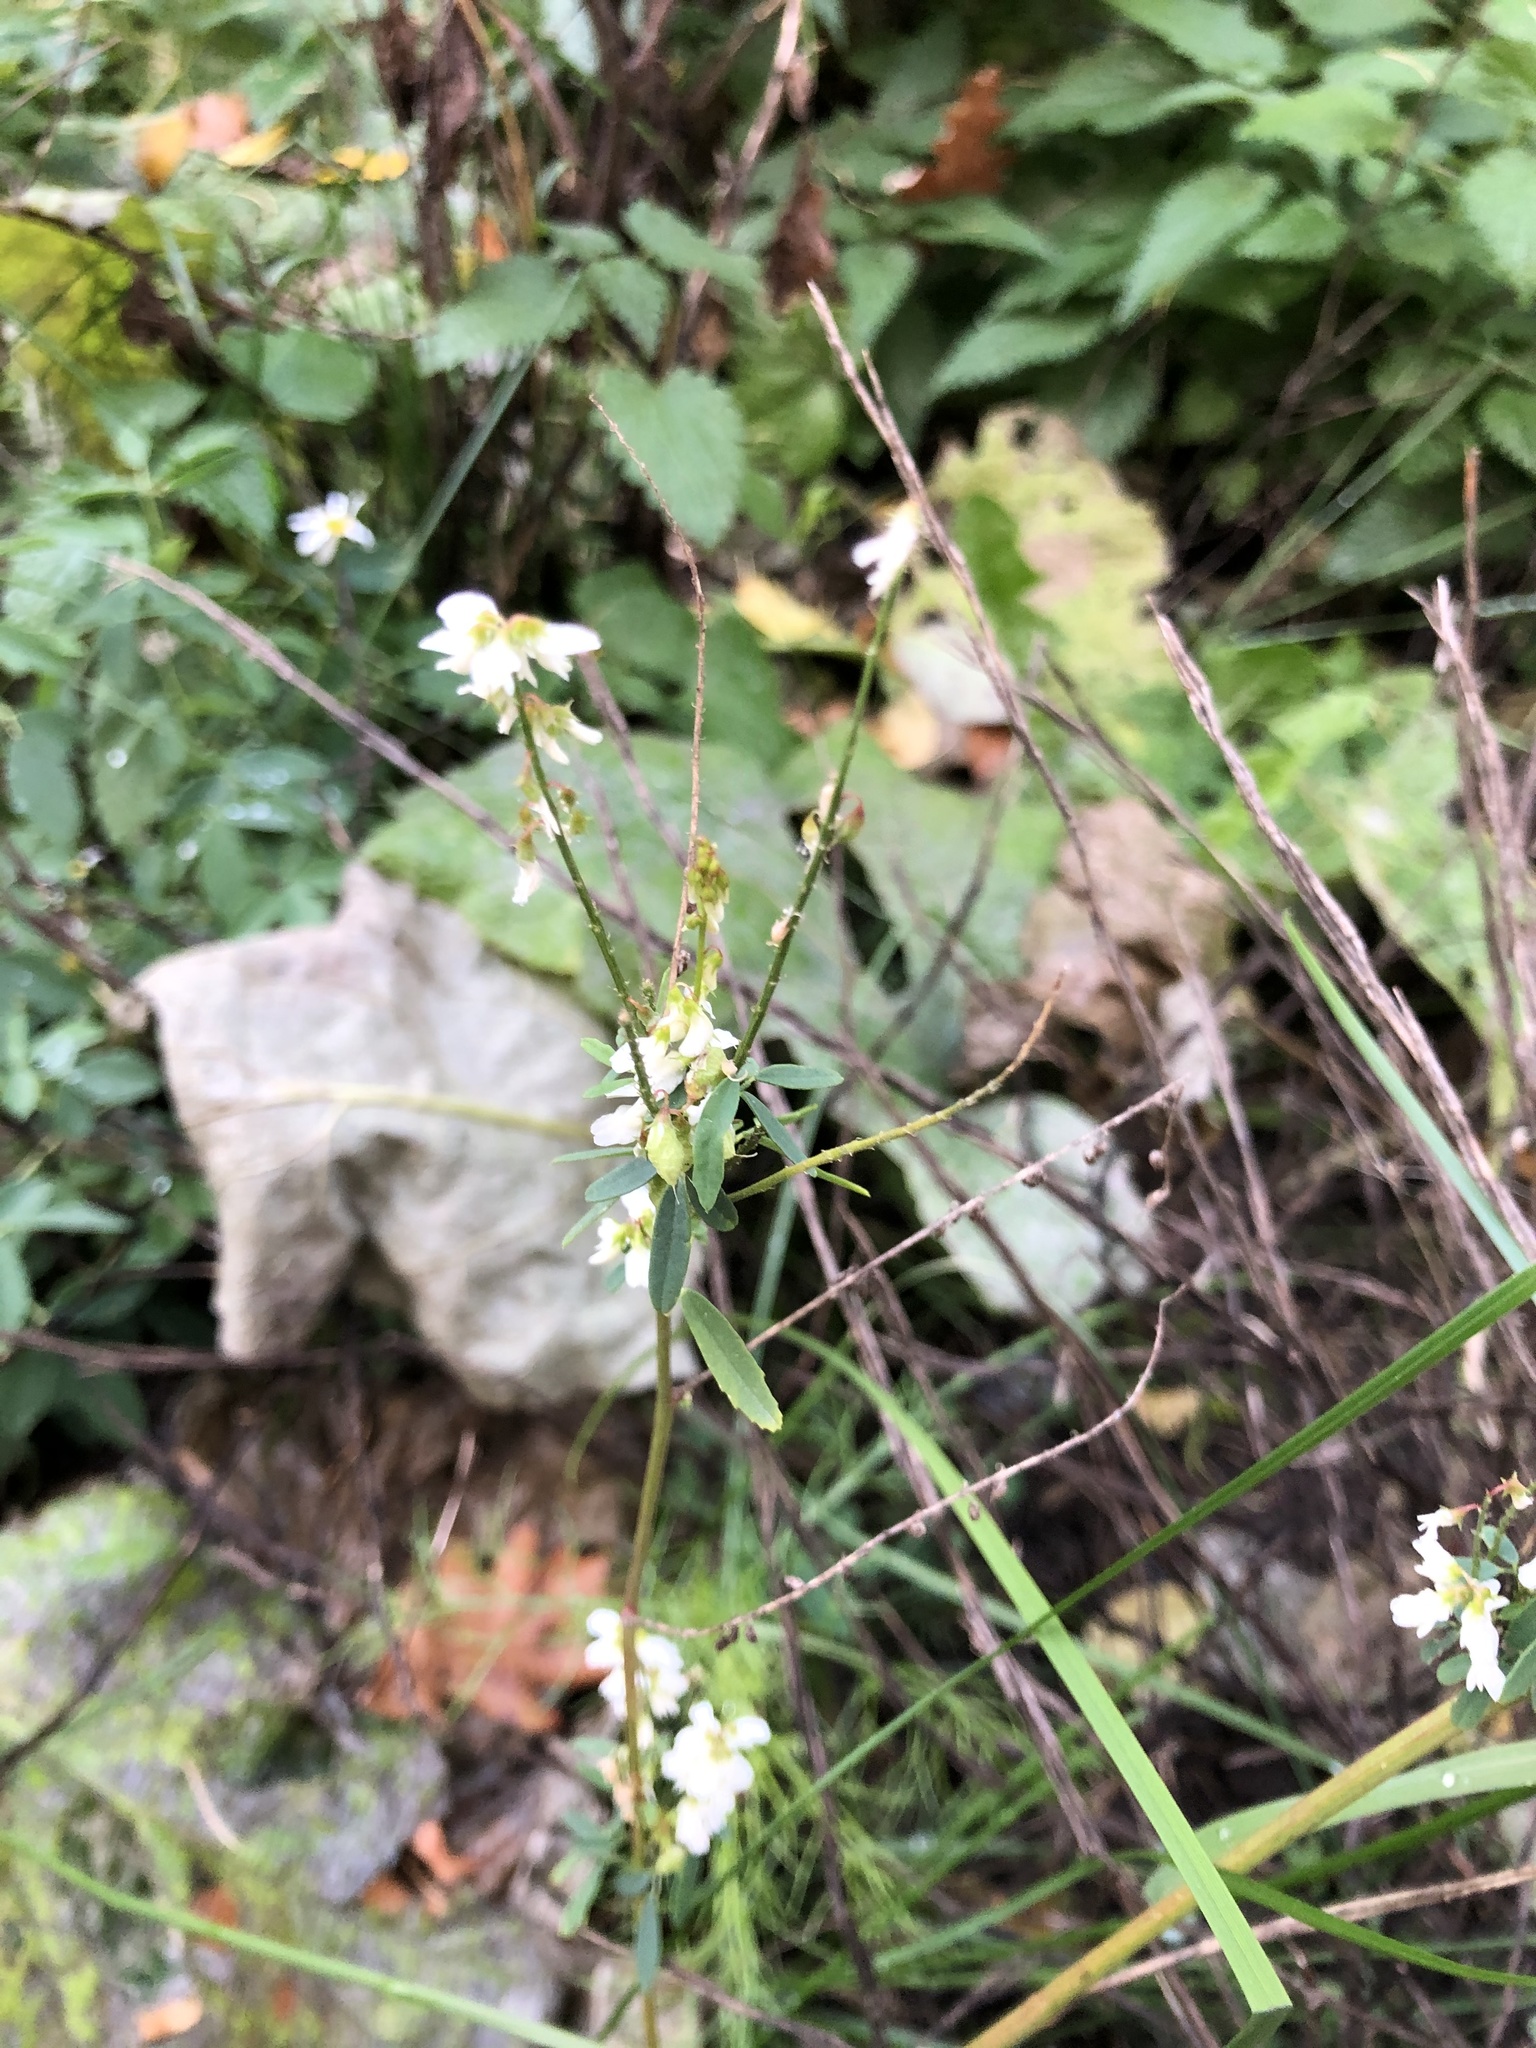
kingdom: Plantae
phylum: Tracheophyta
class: Magnoliopsida
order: Fabales
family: Fabaceae
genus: Melilotus
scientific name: Melilotus albus
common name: White melilot
